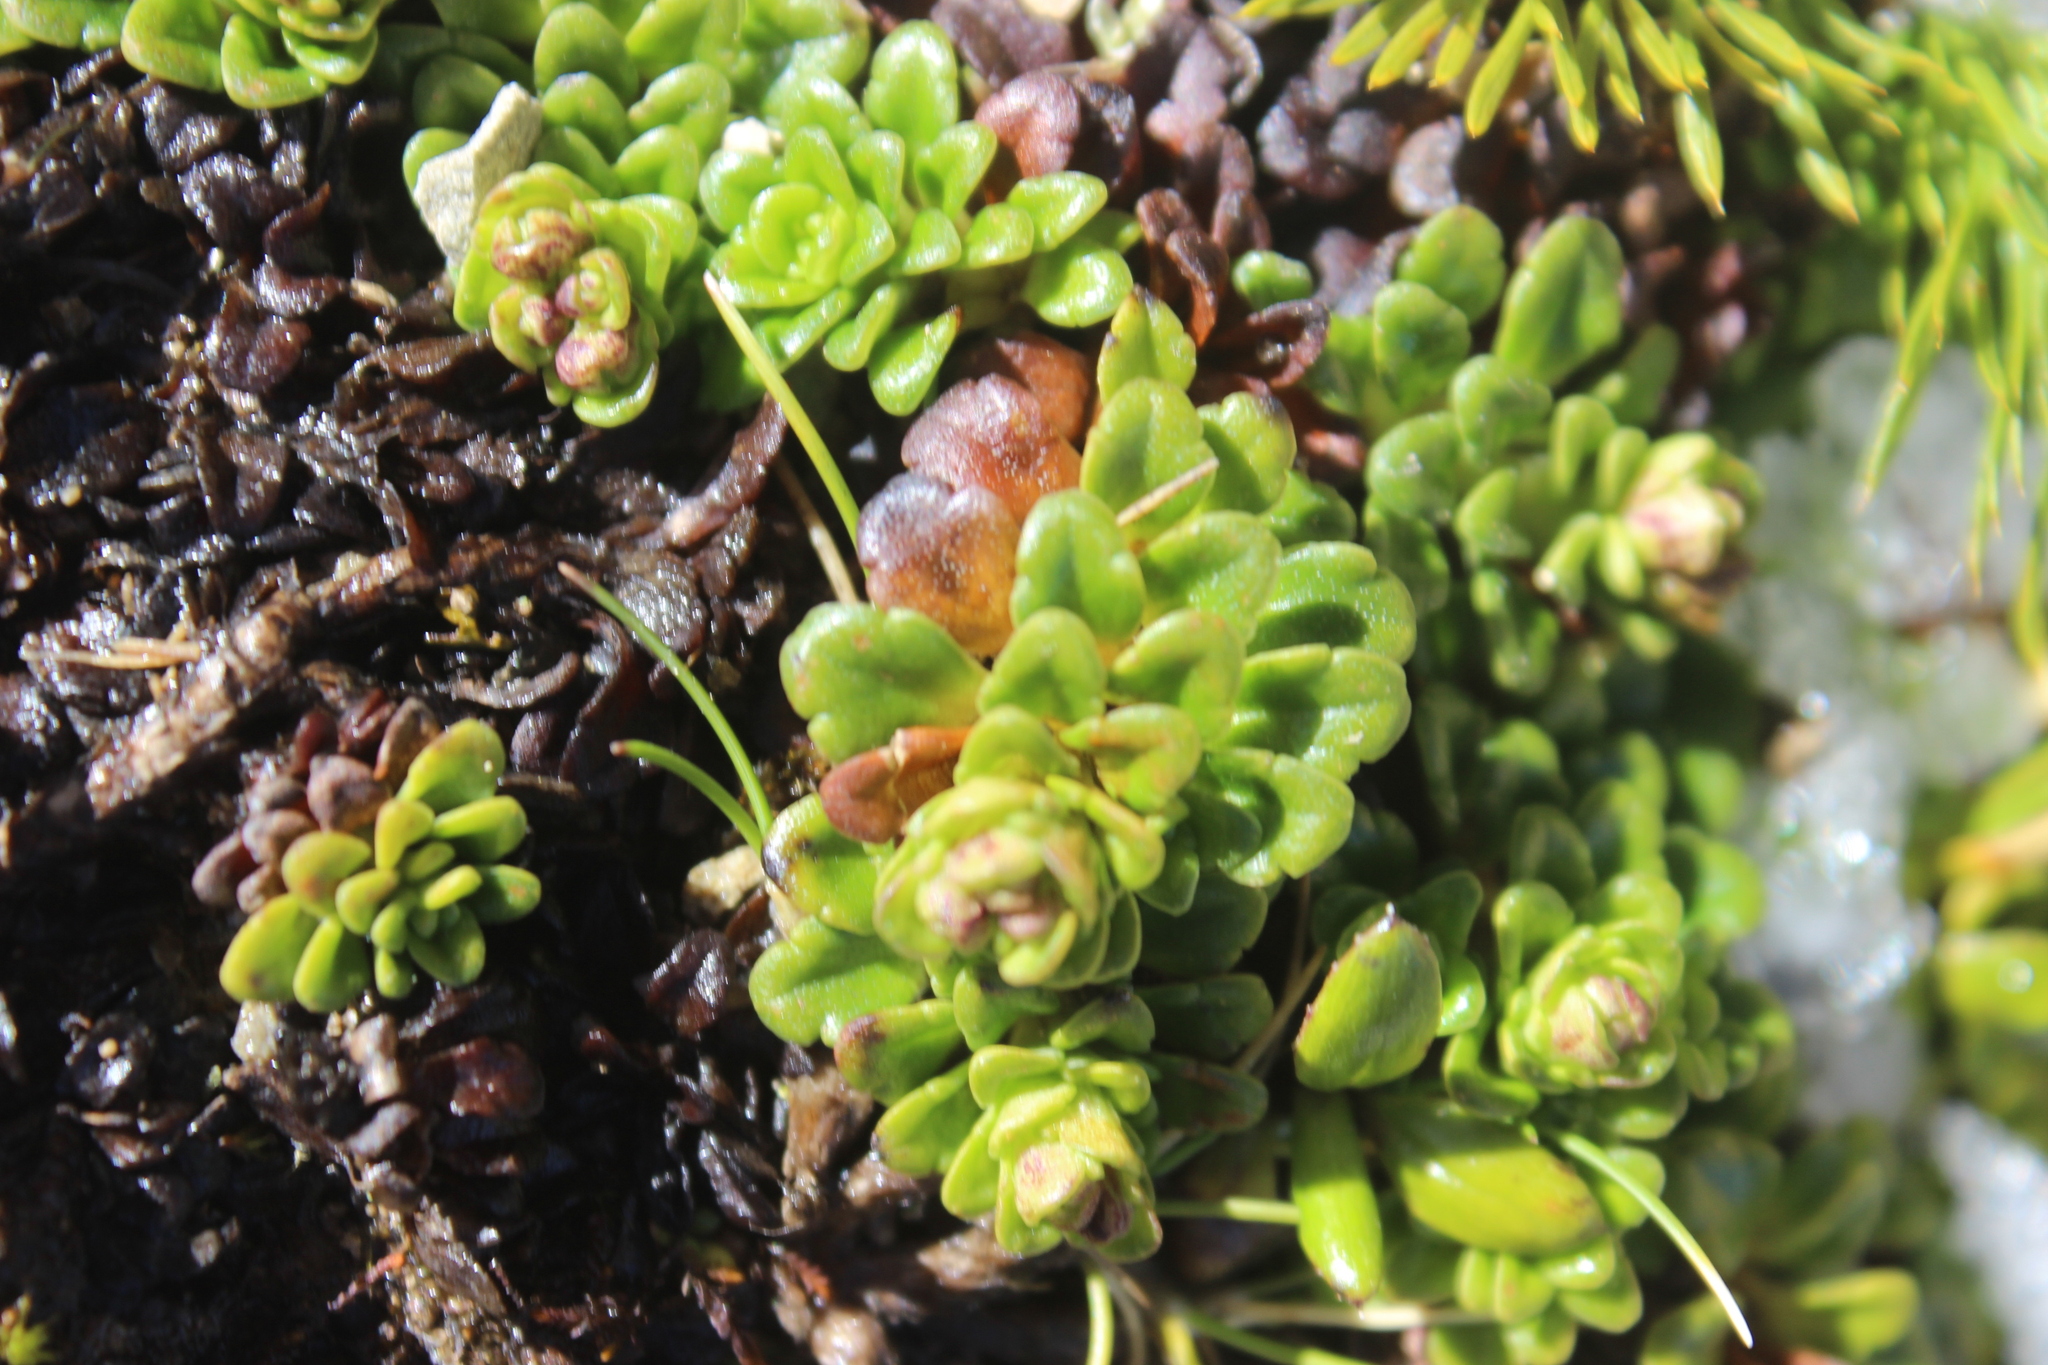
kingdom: Plantae
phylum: Tracheophyta
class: Magnoliopsida
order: Lamiales
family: Plantaginaceae
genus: Ourisia
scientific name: Ourisia caespitosa
